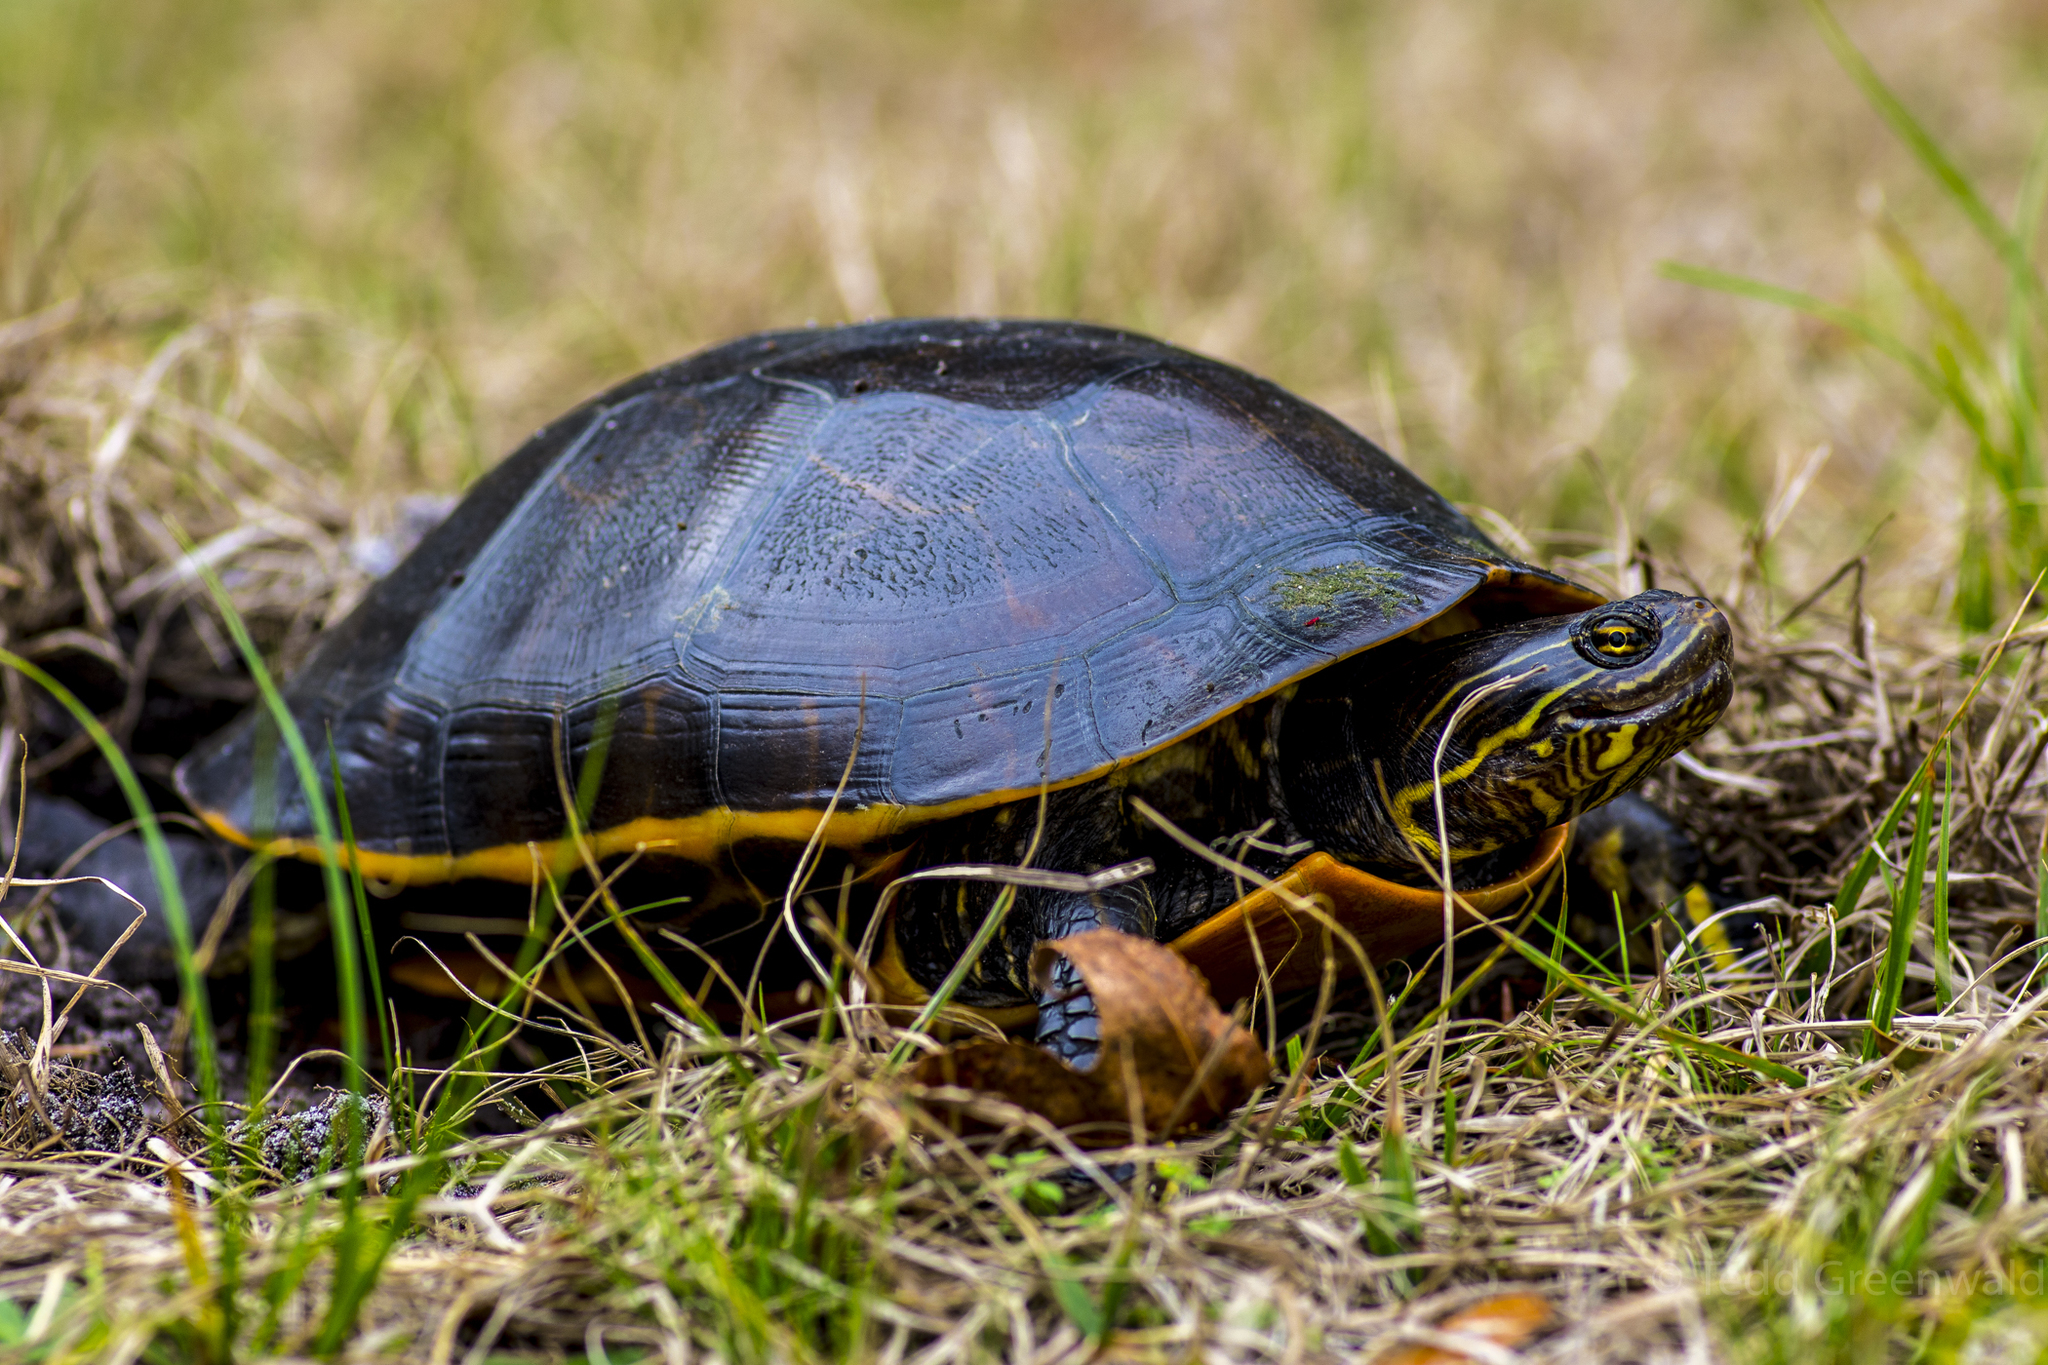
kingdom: Animalia
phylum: Chordata
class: Testudines
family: Emydidae
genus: Deirochelys
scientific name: Deirochelys reticularia
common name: Chicken turtle
